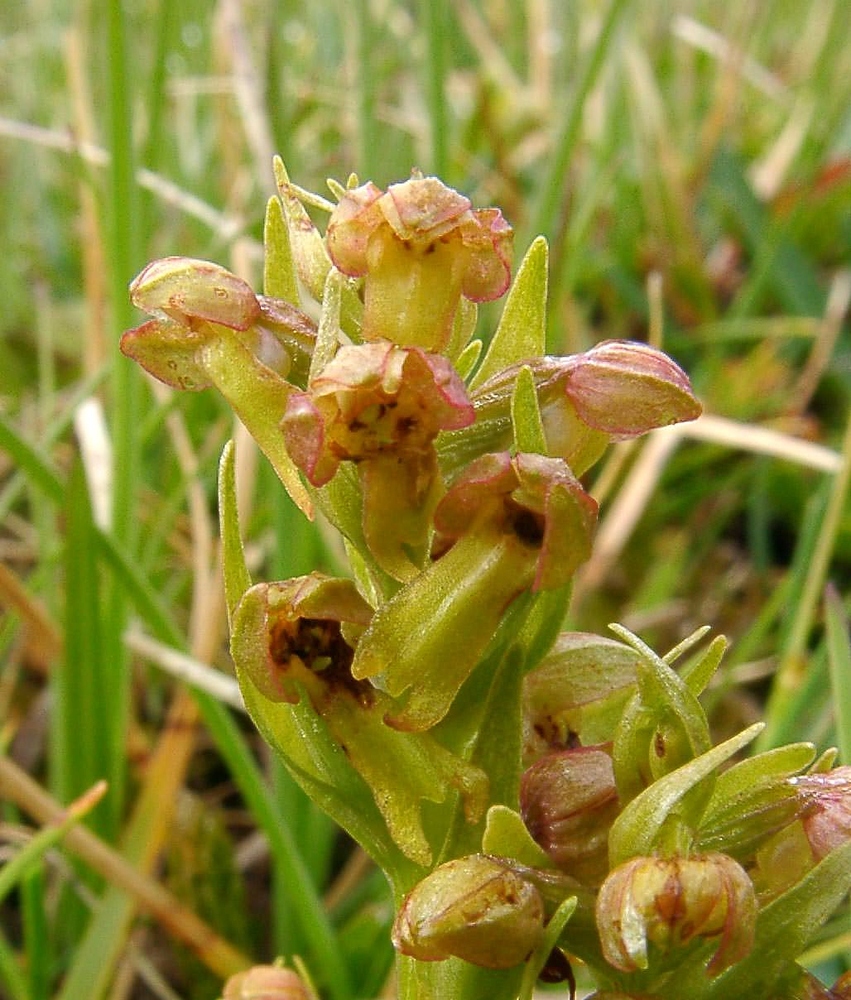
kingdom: Plantae
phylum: Tracheophyta
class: Liliopsida
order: Asparagales
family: Orchidaceae
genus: Dactylorhiza
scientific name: Dactylorhiza viridis
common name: Longbract frog orchid
